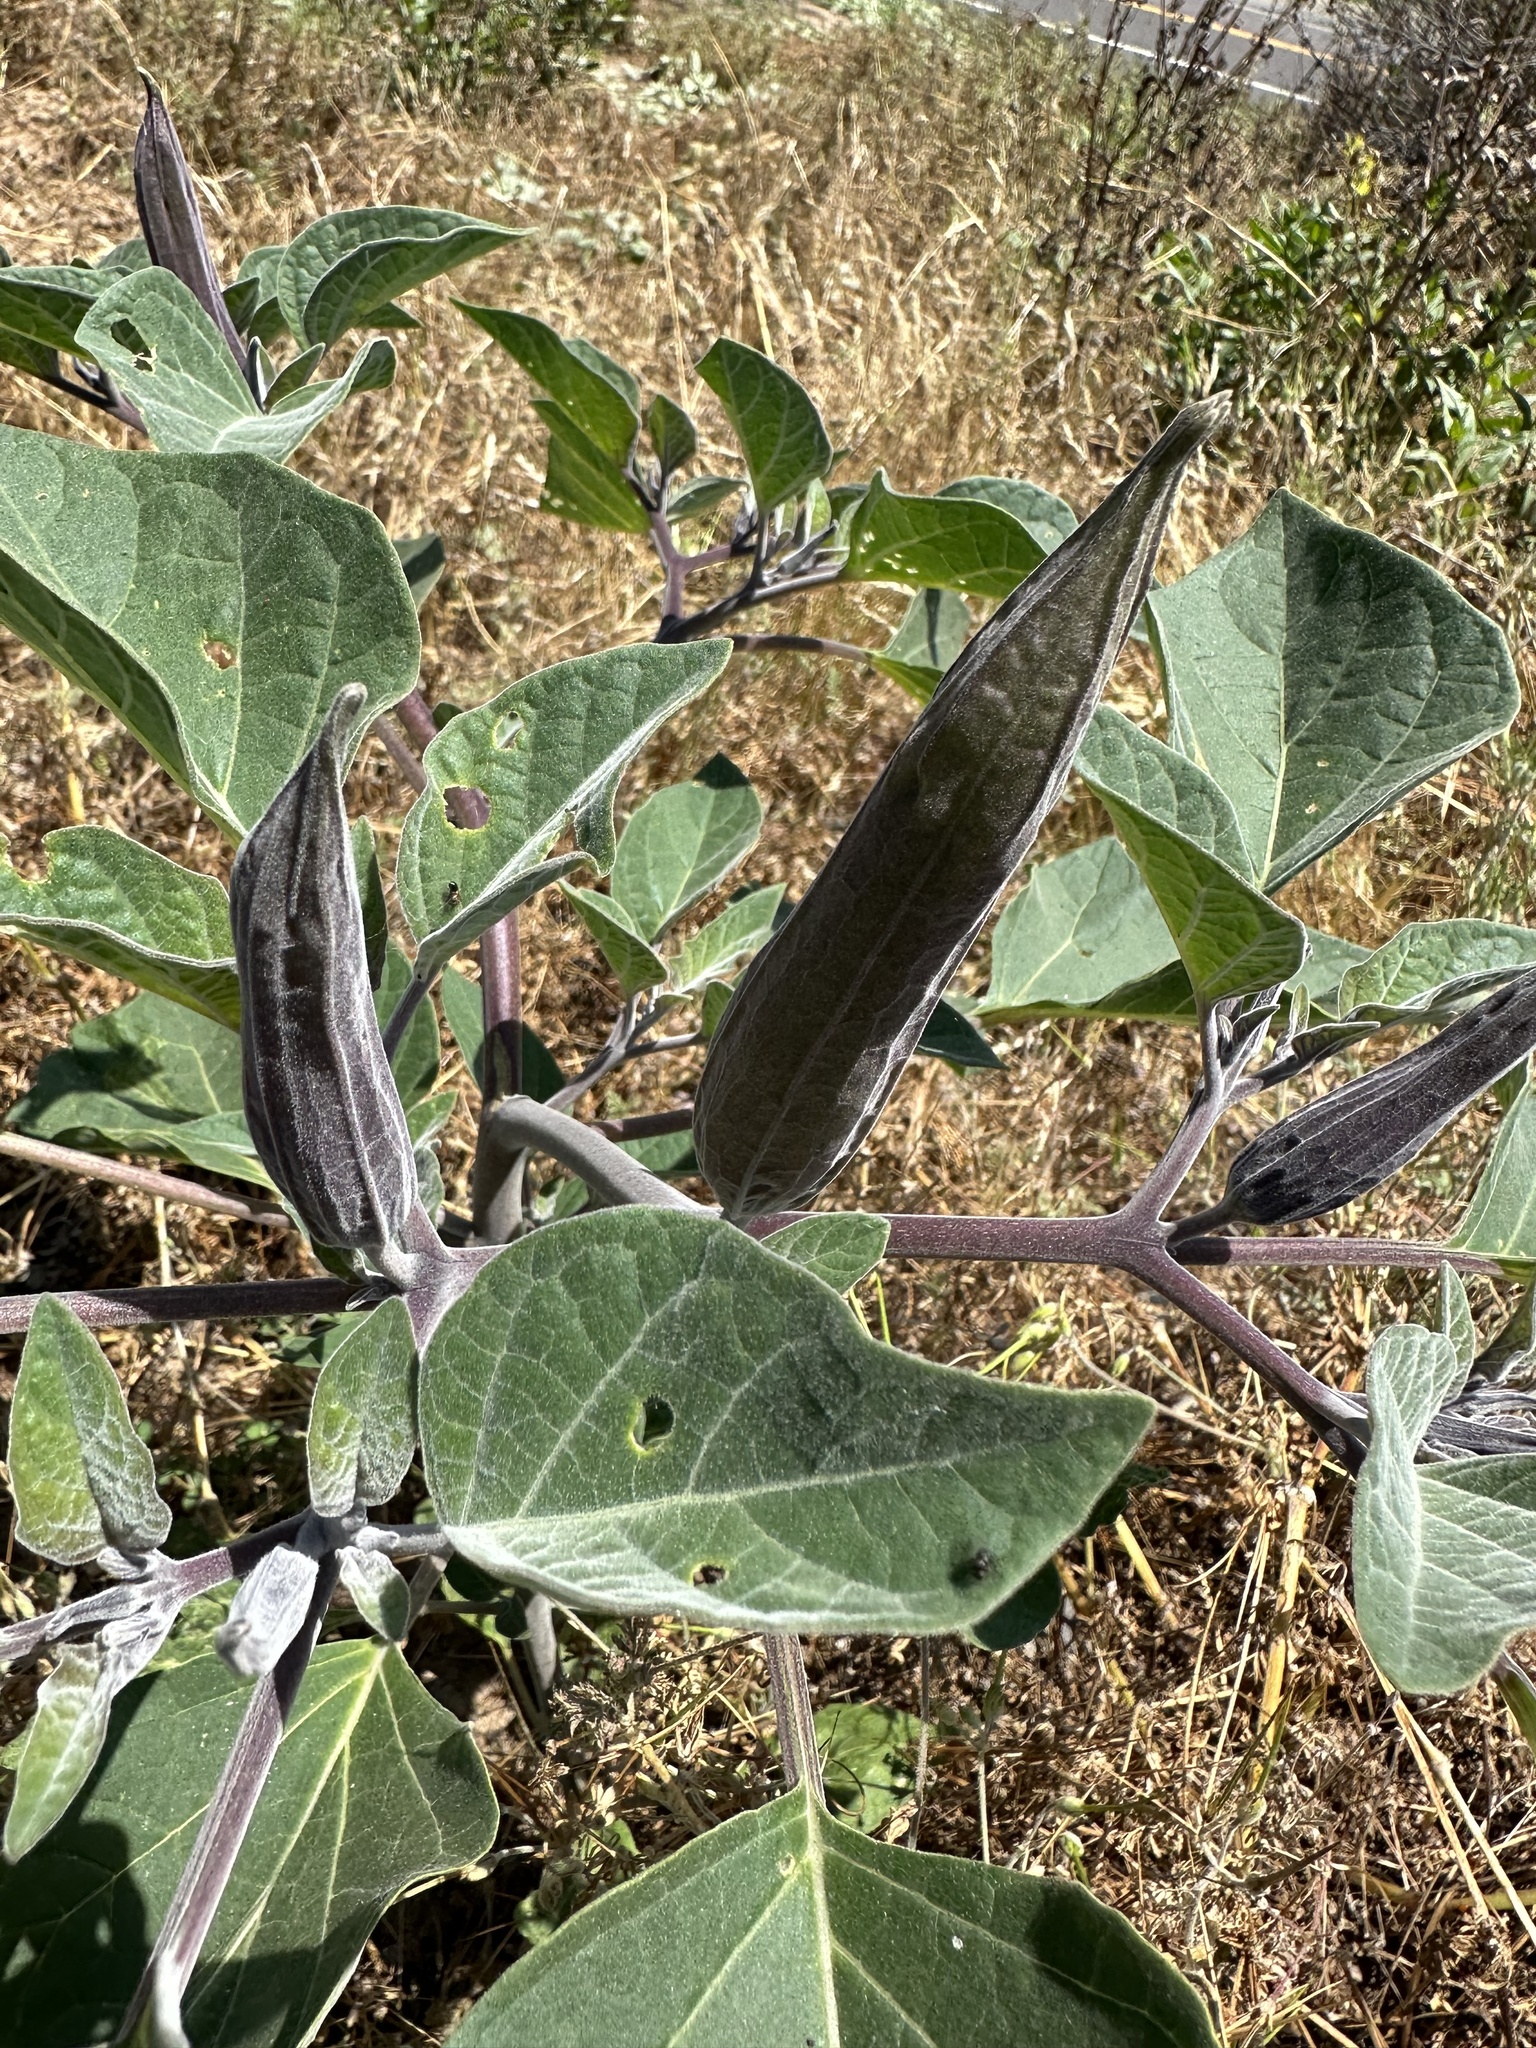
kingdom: Plantae
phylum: Tracheophyta
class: Magnoliopsida
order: Solanales
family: Solanaceae
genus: Datura
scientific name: Datura wrightii
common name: Sacred thorn-apple
